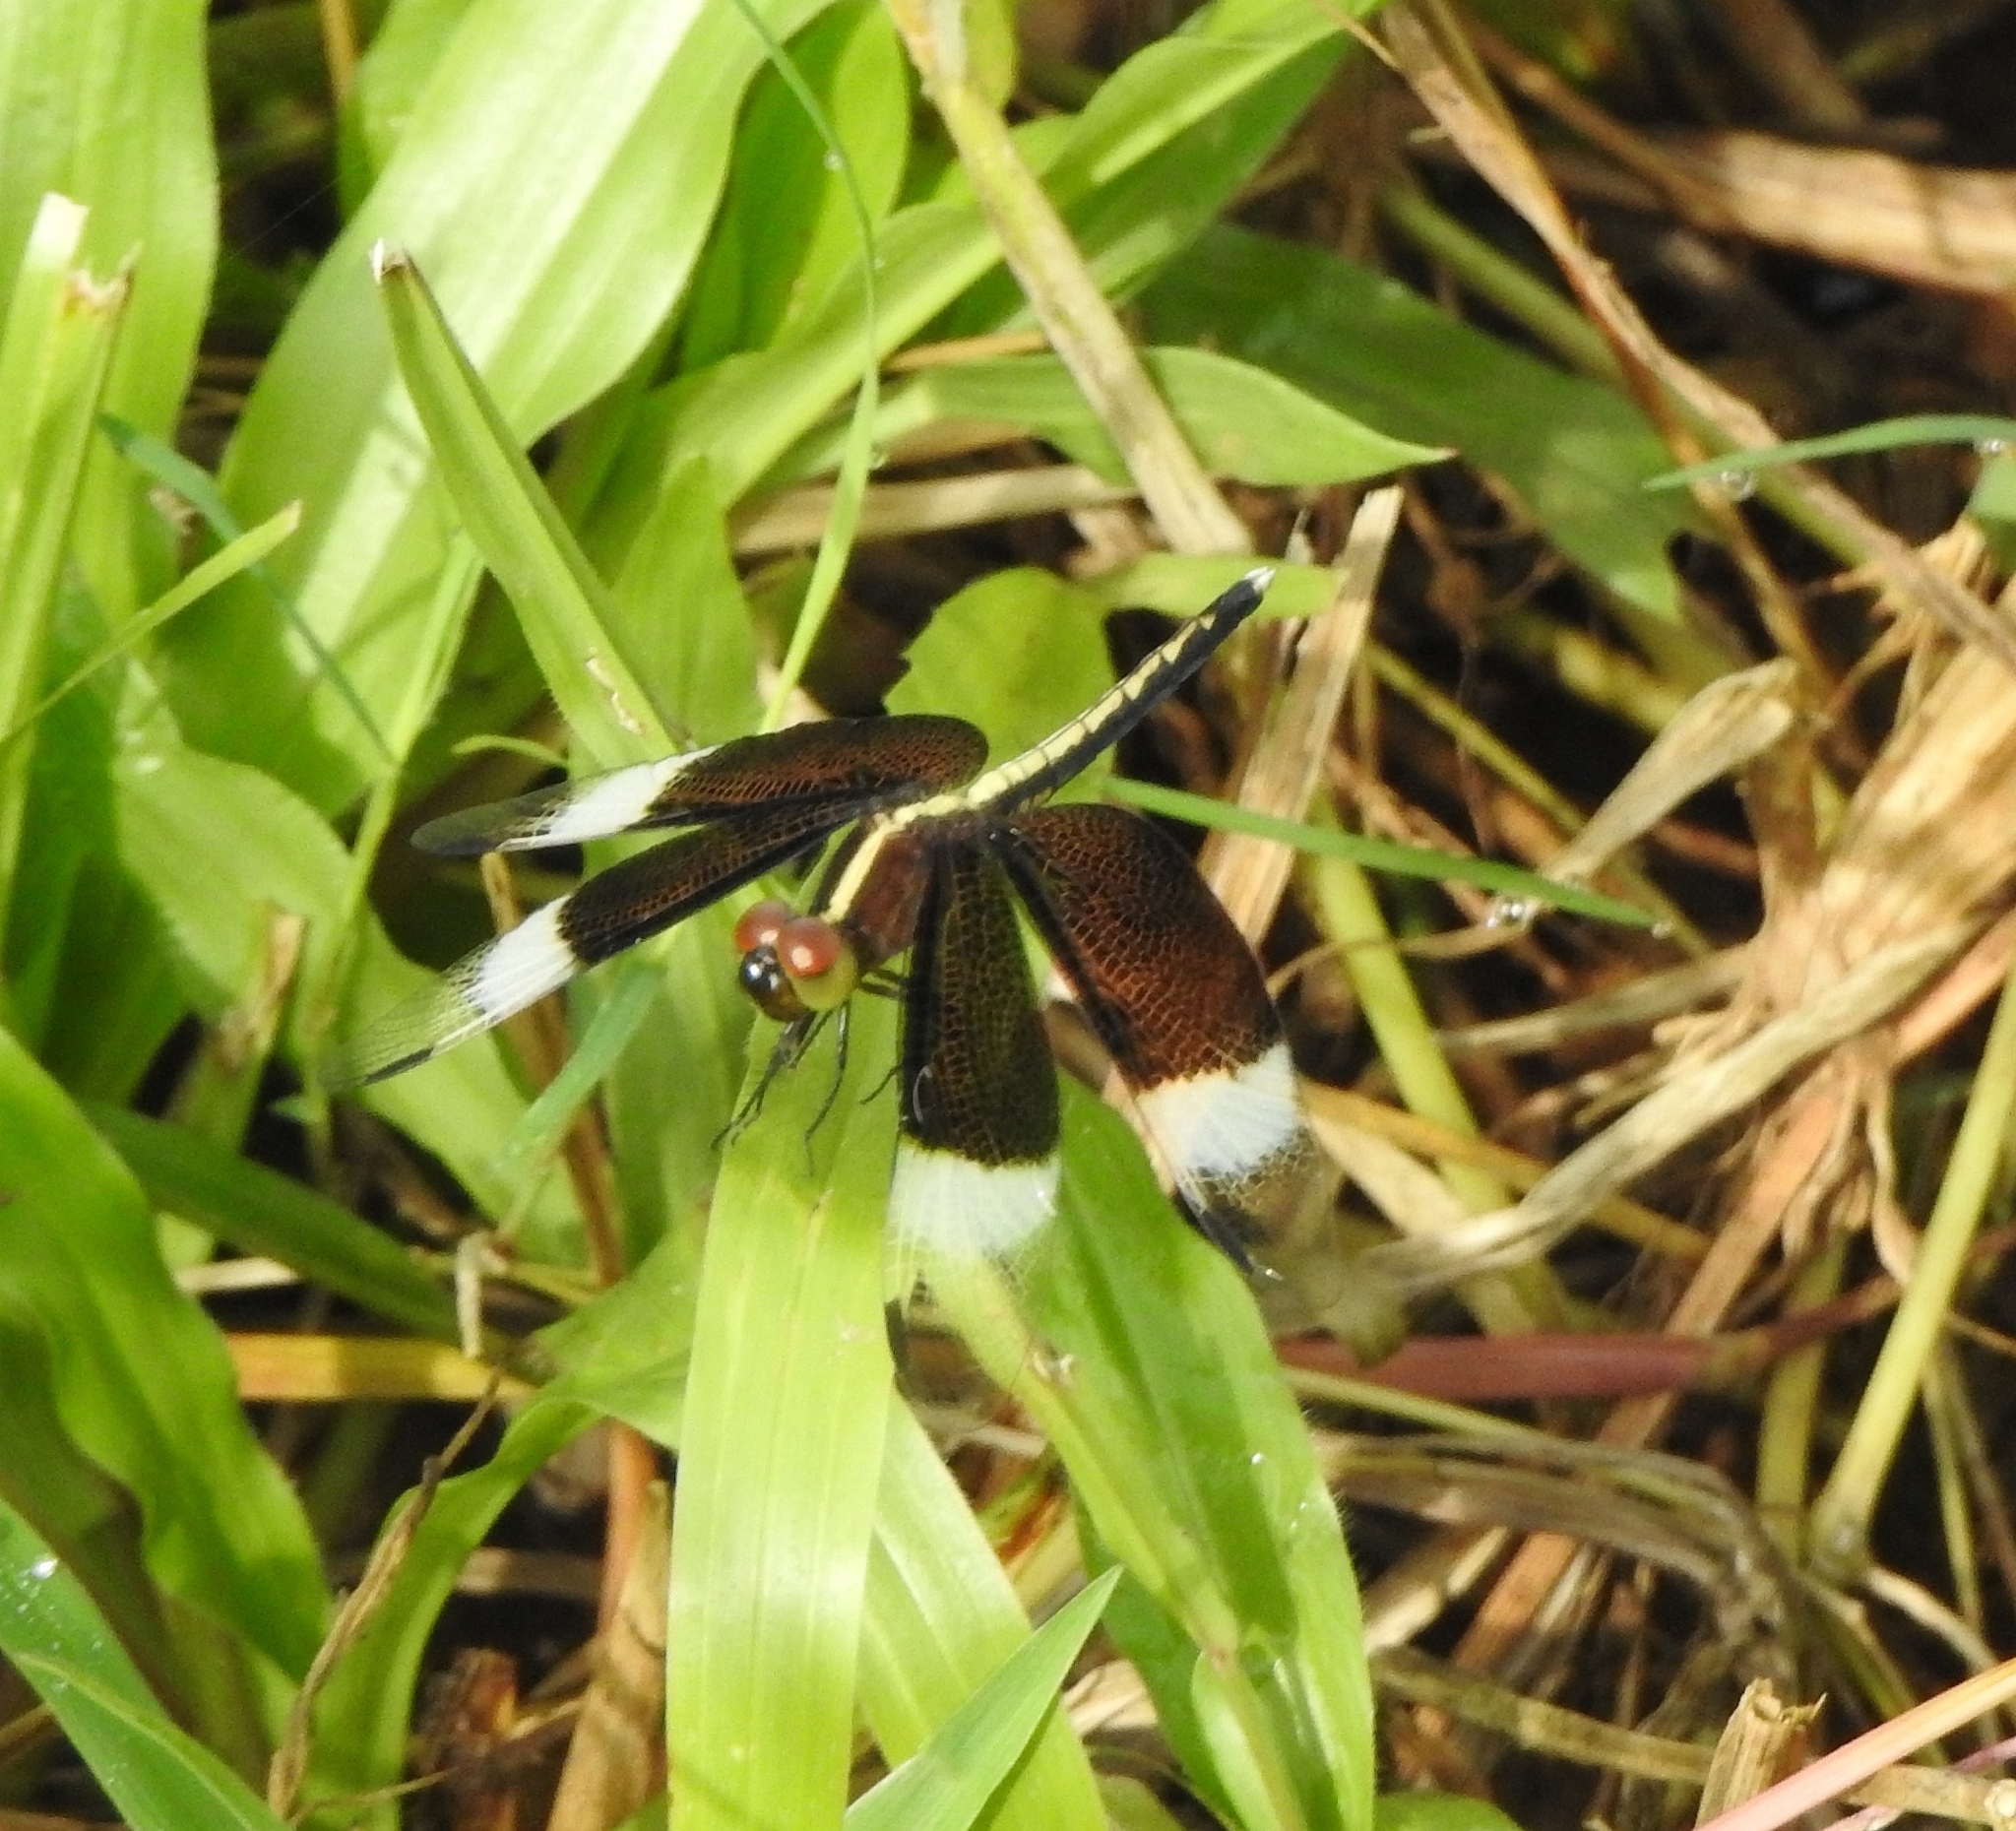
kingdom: Animalia
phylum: Arthropoda
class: Insecta
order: Odonata
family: Libellulidae
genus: Neurothemis
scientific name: Neurothemis tullia
